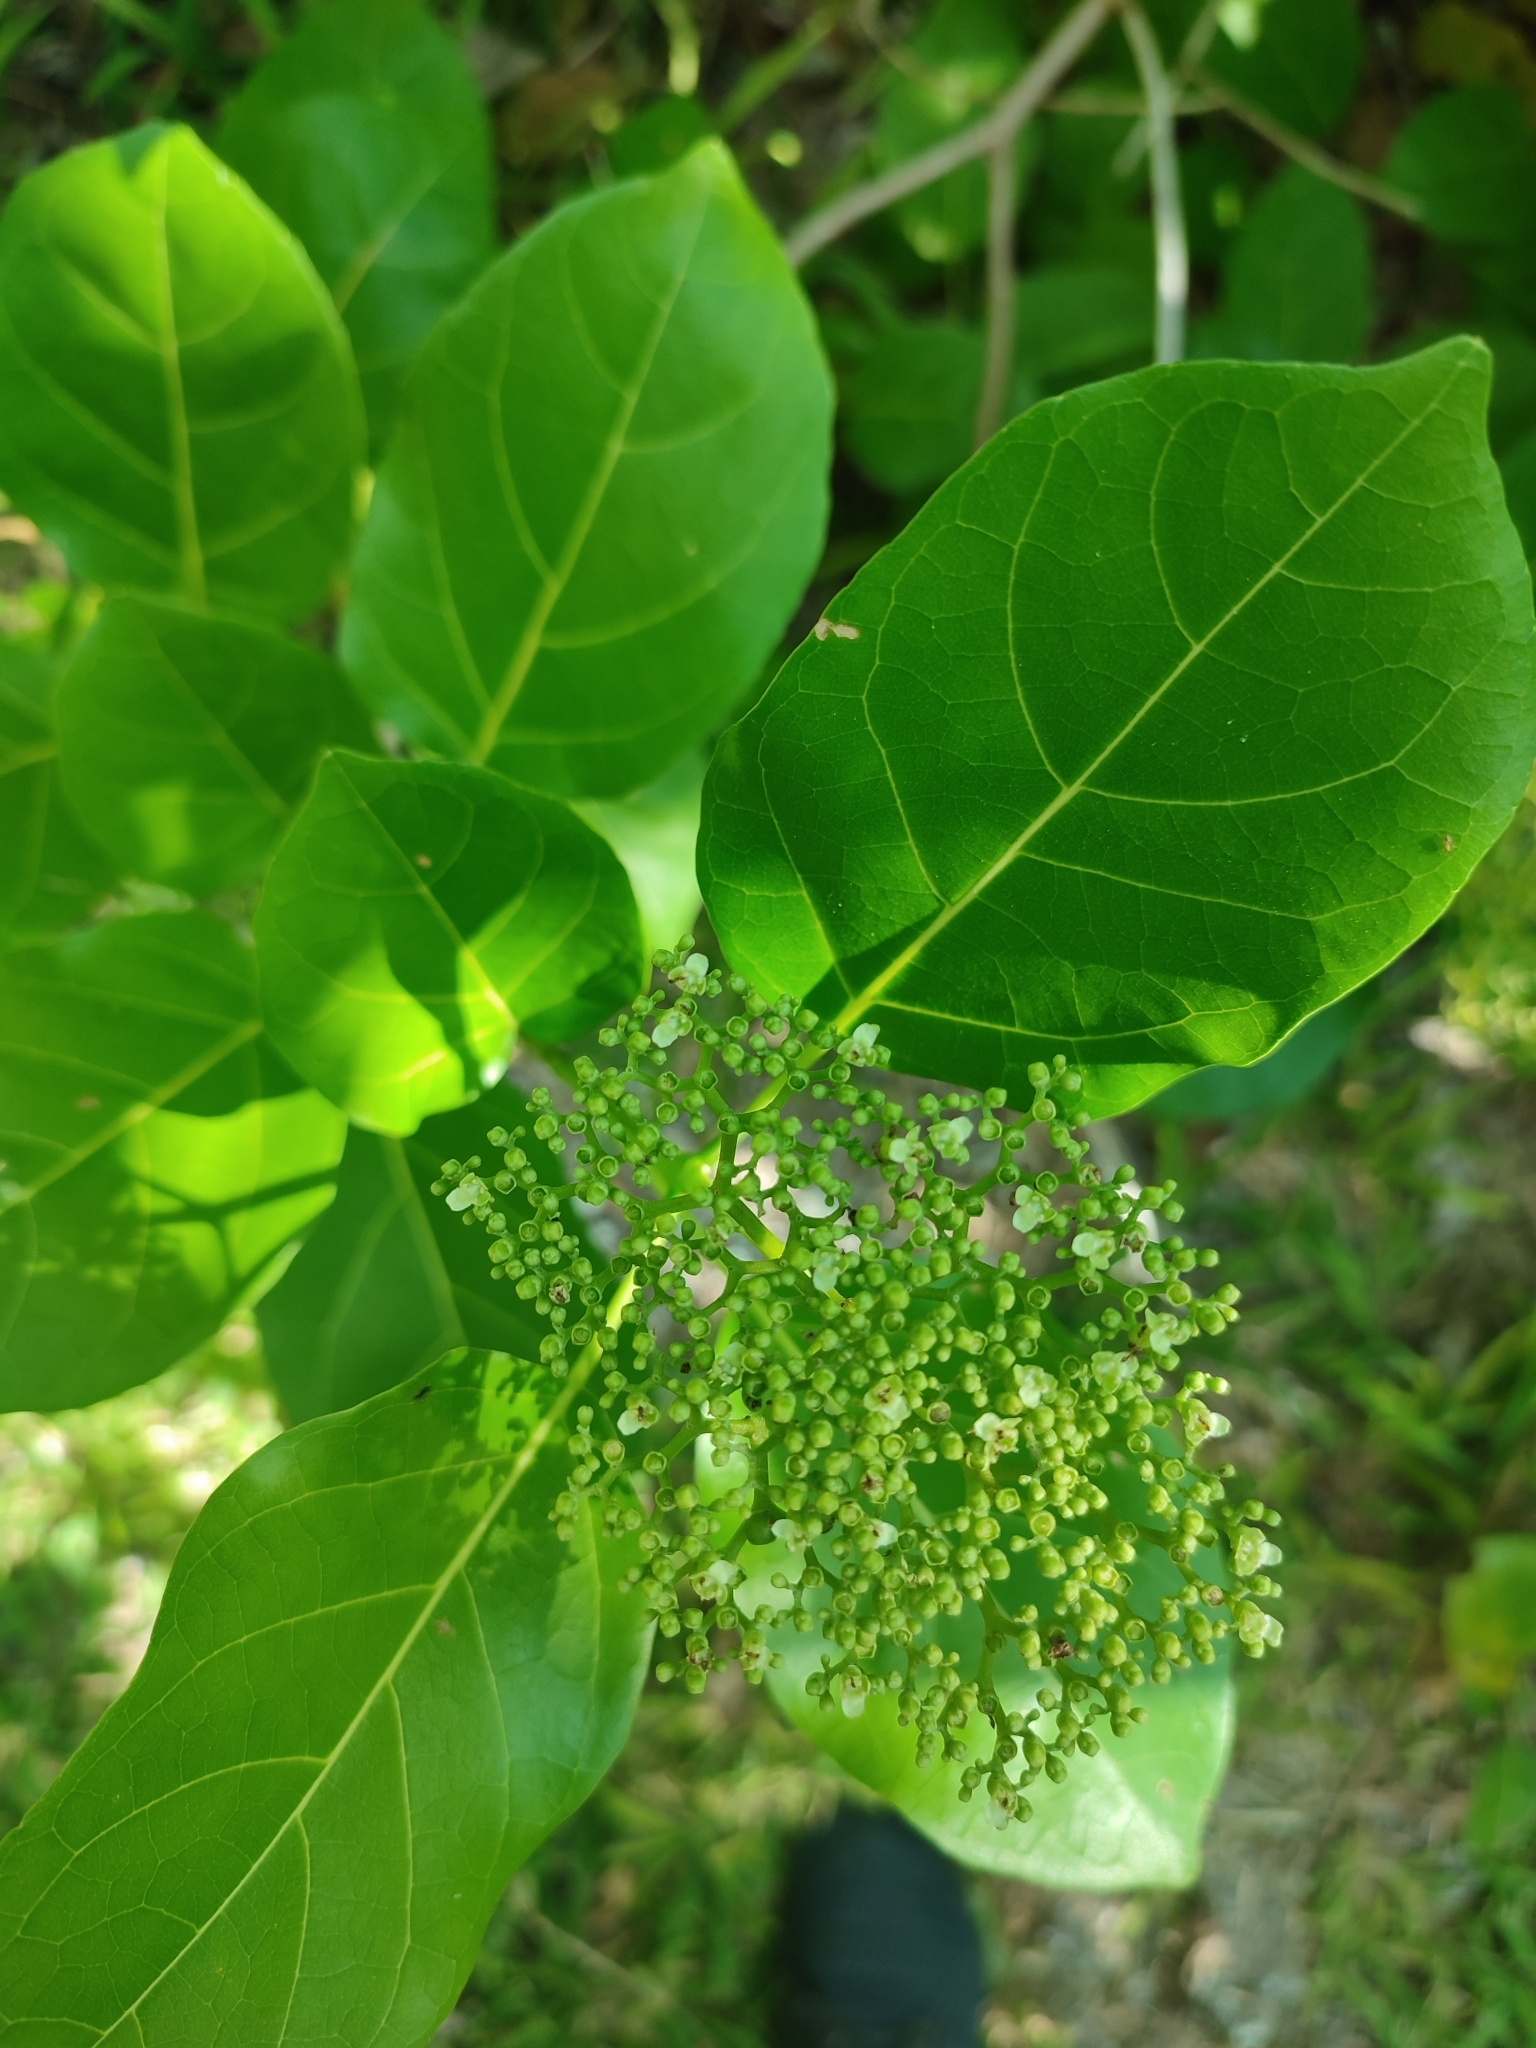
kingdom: Plantae
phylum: Tracheophyta
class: Magnoliopsida
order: Lamiales
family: Lamiaceae
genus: Premna
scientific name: Premna serratifolia
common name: Bastard guelder
